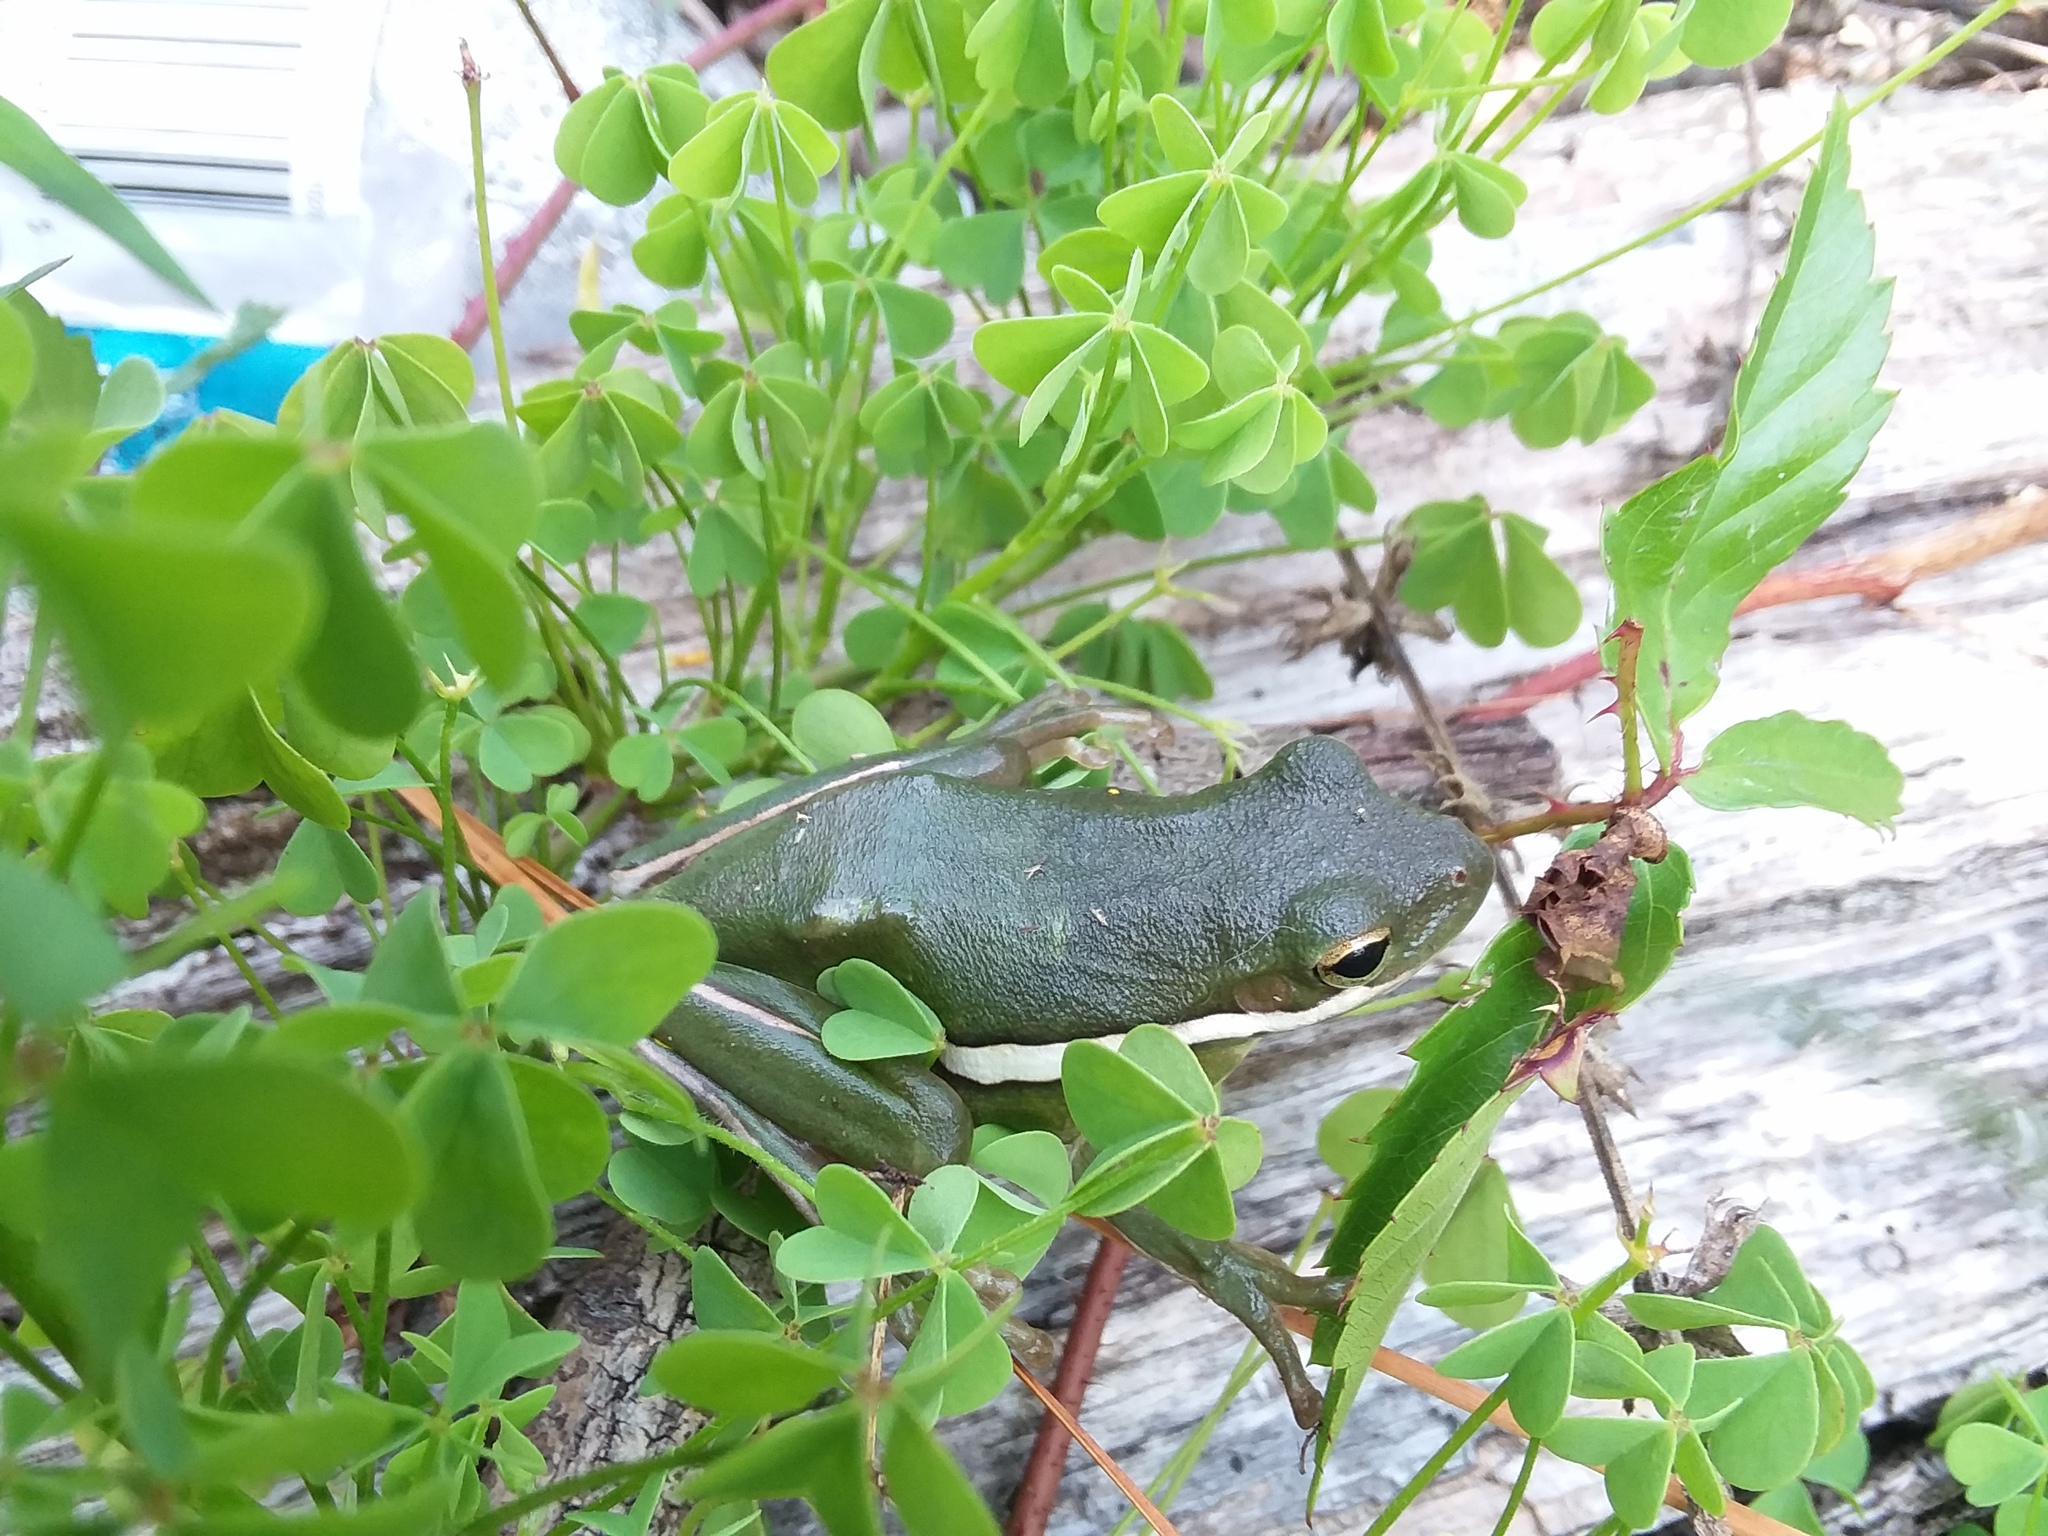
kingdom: Animalia
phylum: Chordata
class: Amphibia
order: Anura
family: Hylidae
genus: Dryophytes
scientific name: Dryophytes cinereus
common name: Green treefrog
